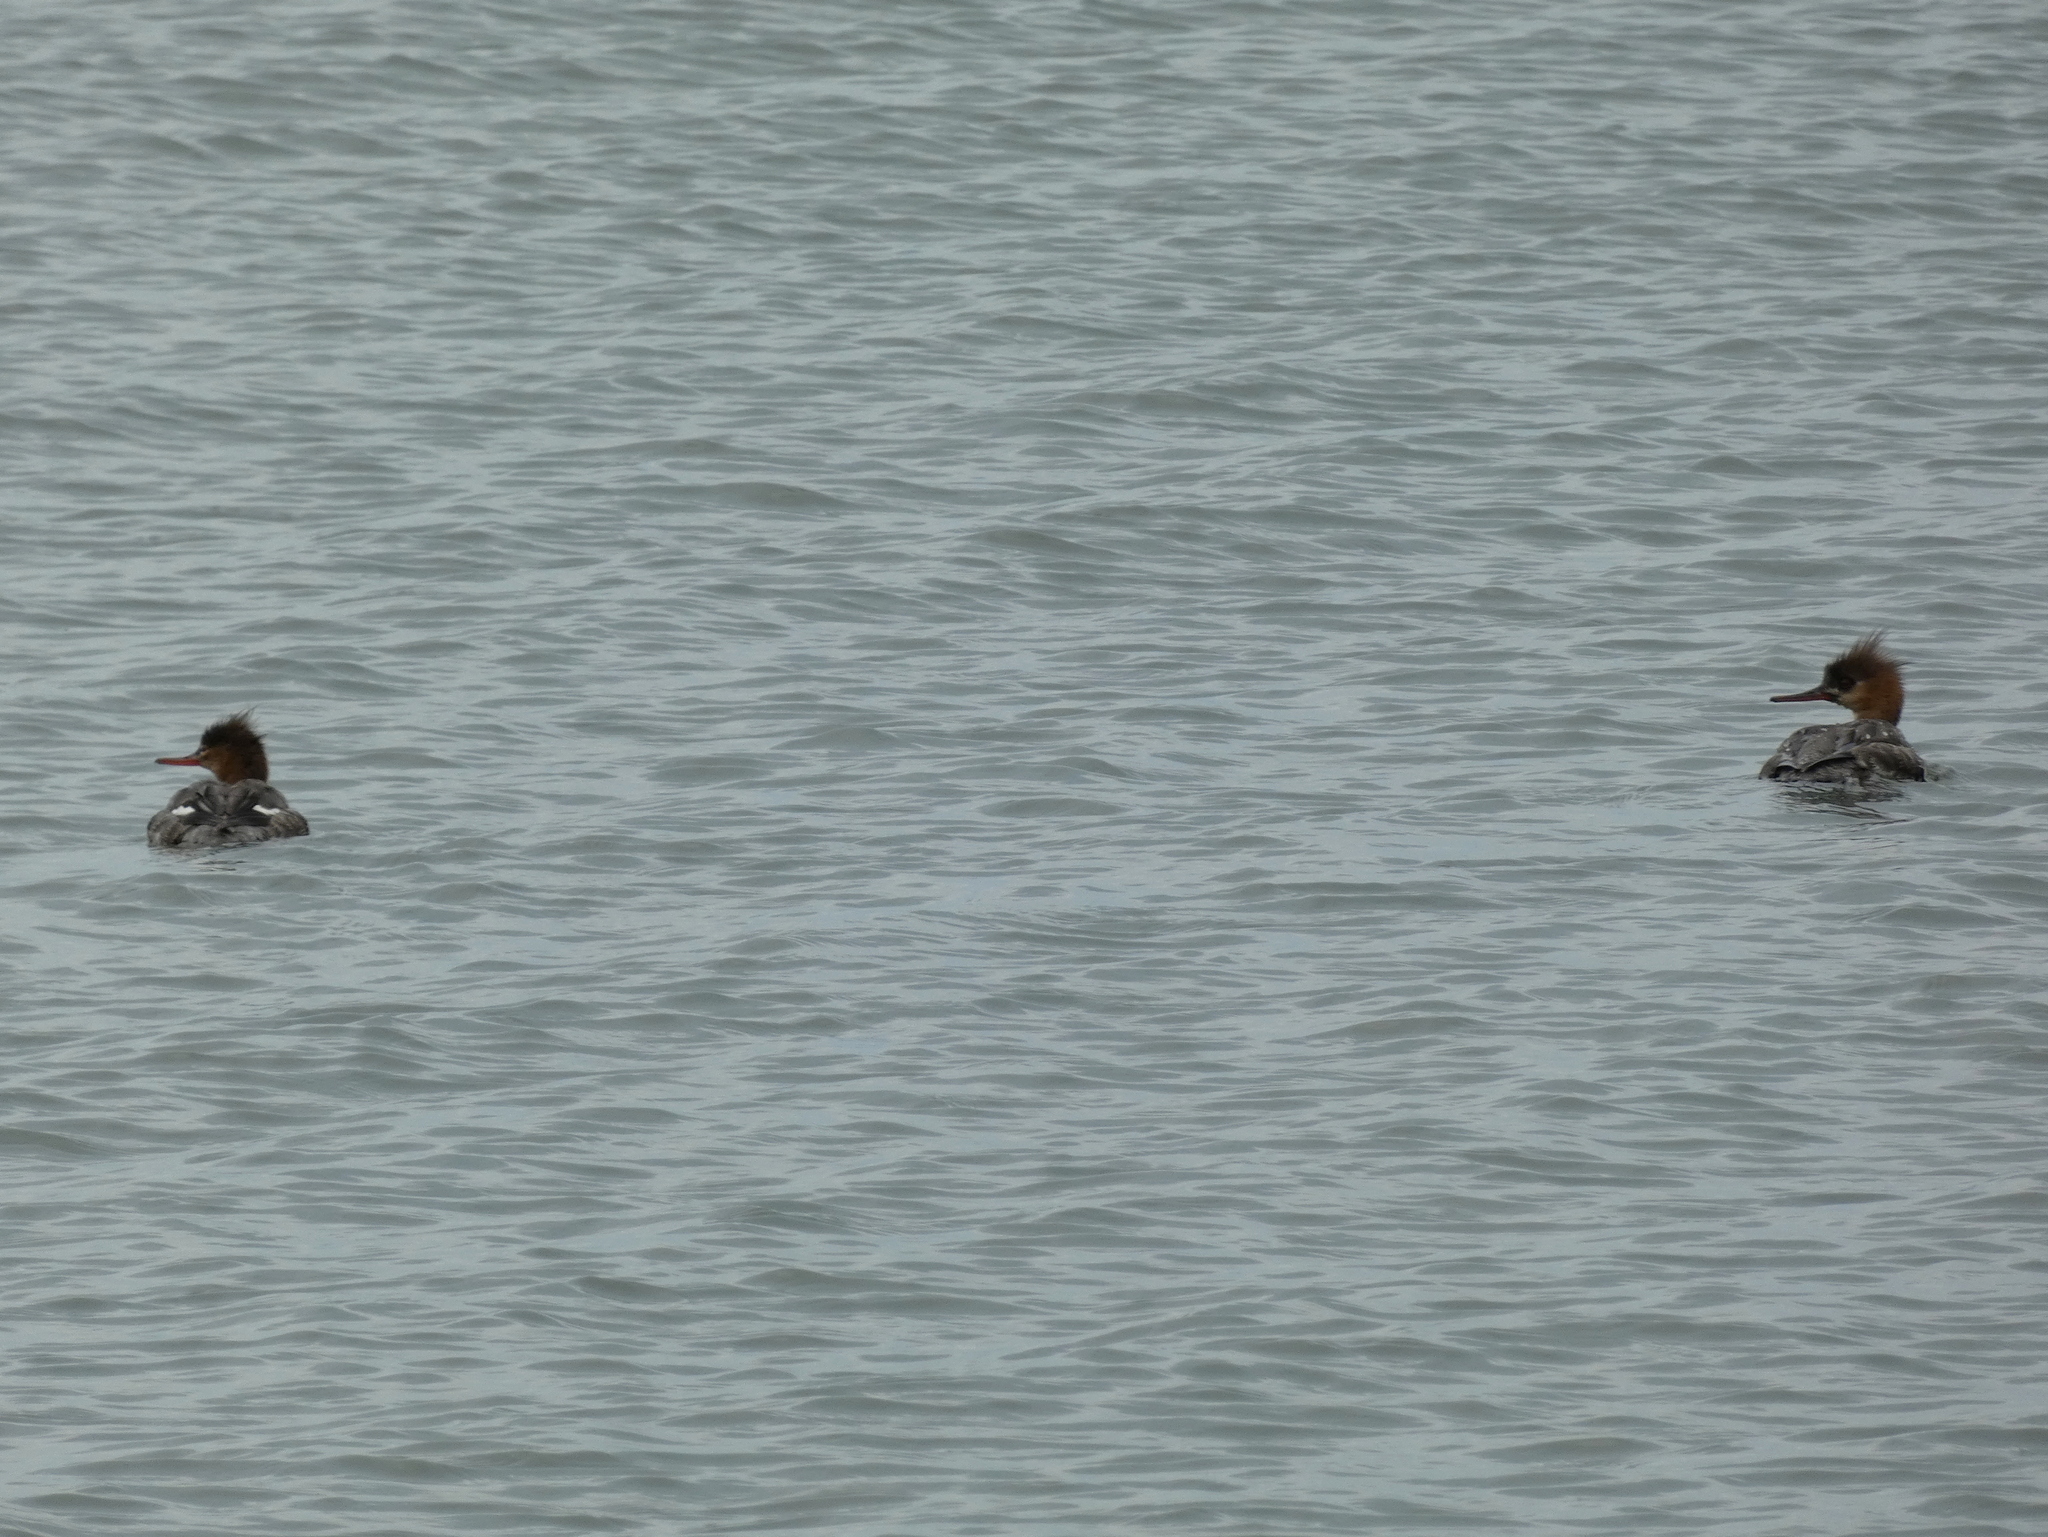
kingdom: Animalia
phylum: Chordata
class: Aves
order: Anseriformes
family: Anatidae
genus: Mergus
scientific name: Mergus serrator
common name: Red-breasted merganser
